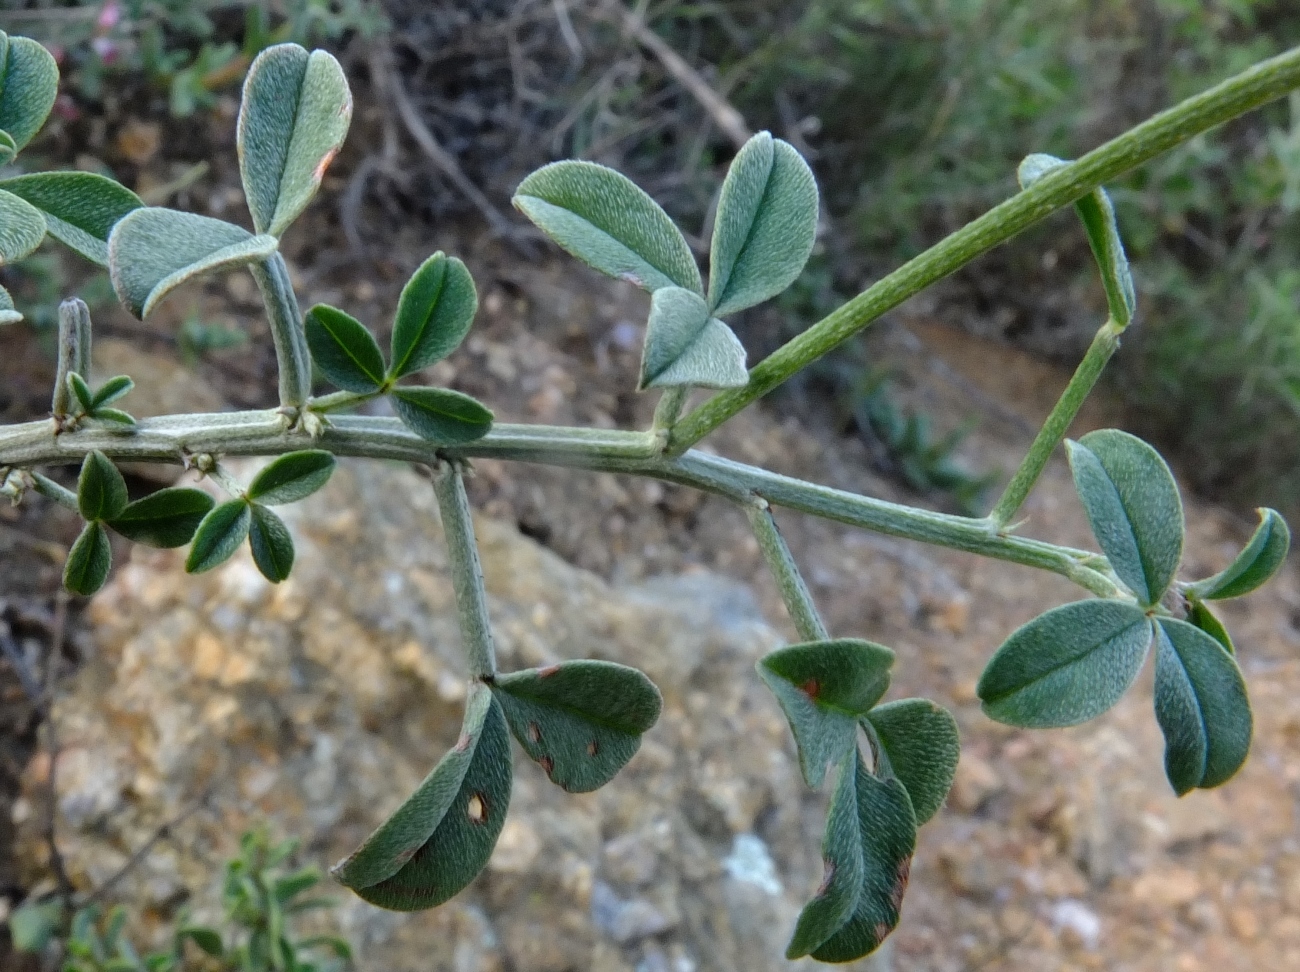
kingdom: Plantae
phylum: Tracheophyta
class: Magnoliopsida
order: Fabales
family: Fabaceae
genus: Indigofera
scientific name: Indigofera meyeriana
